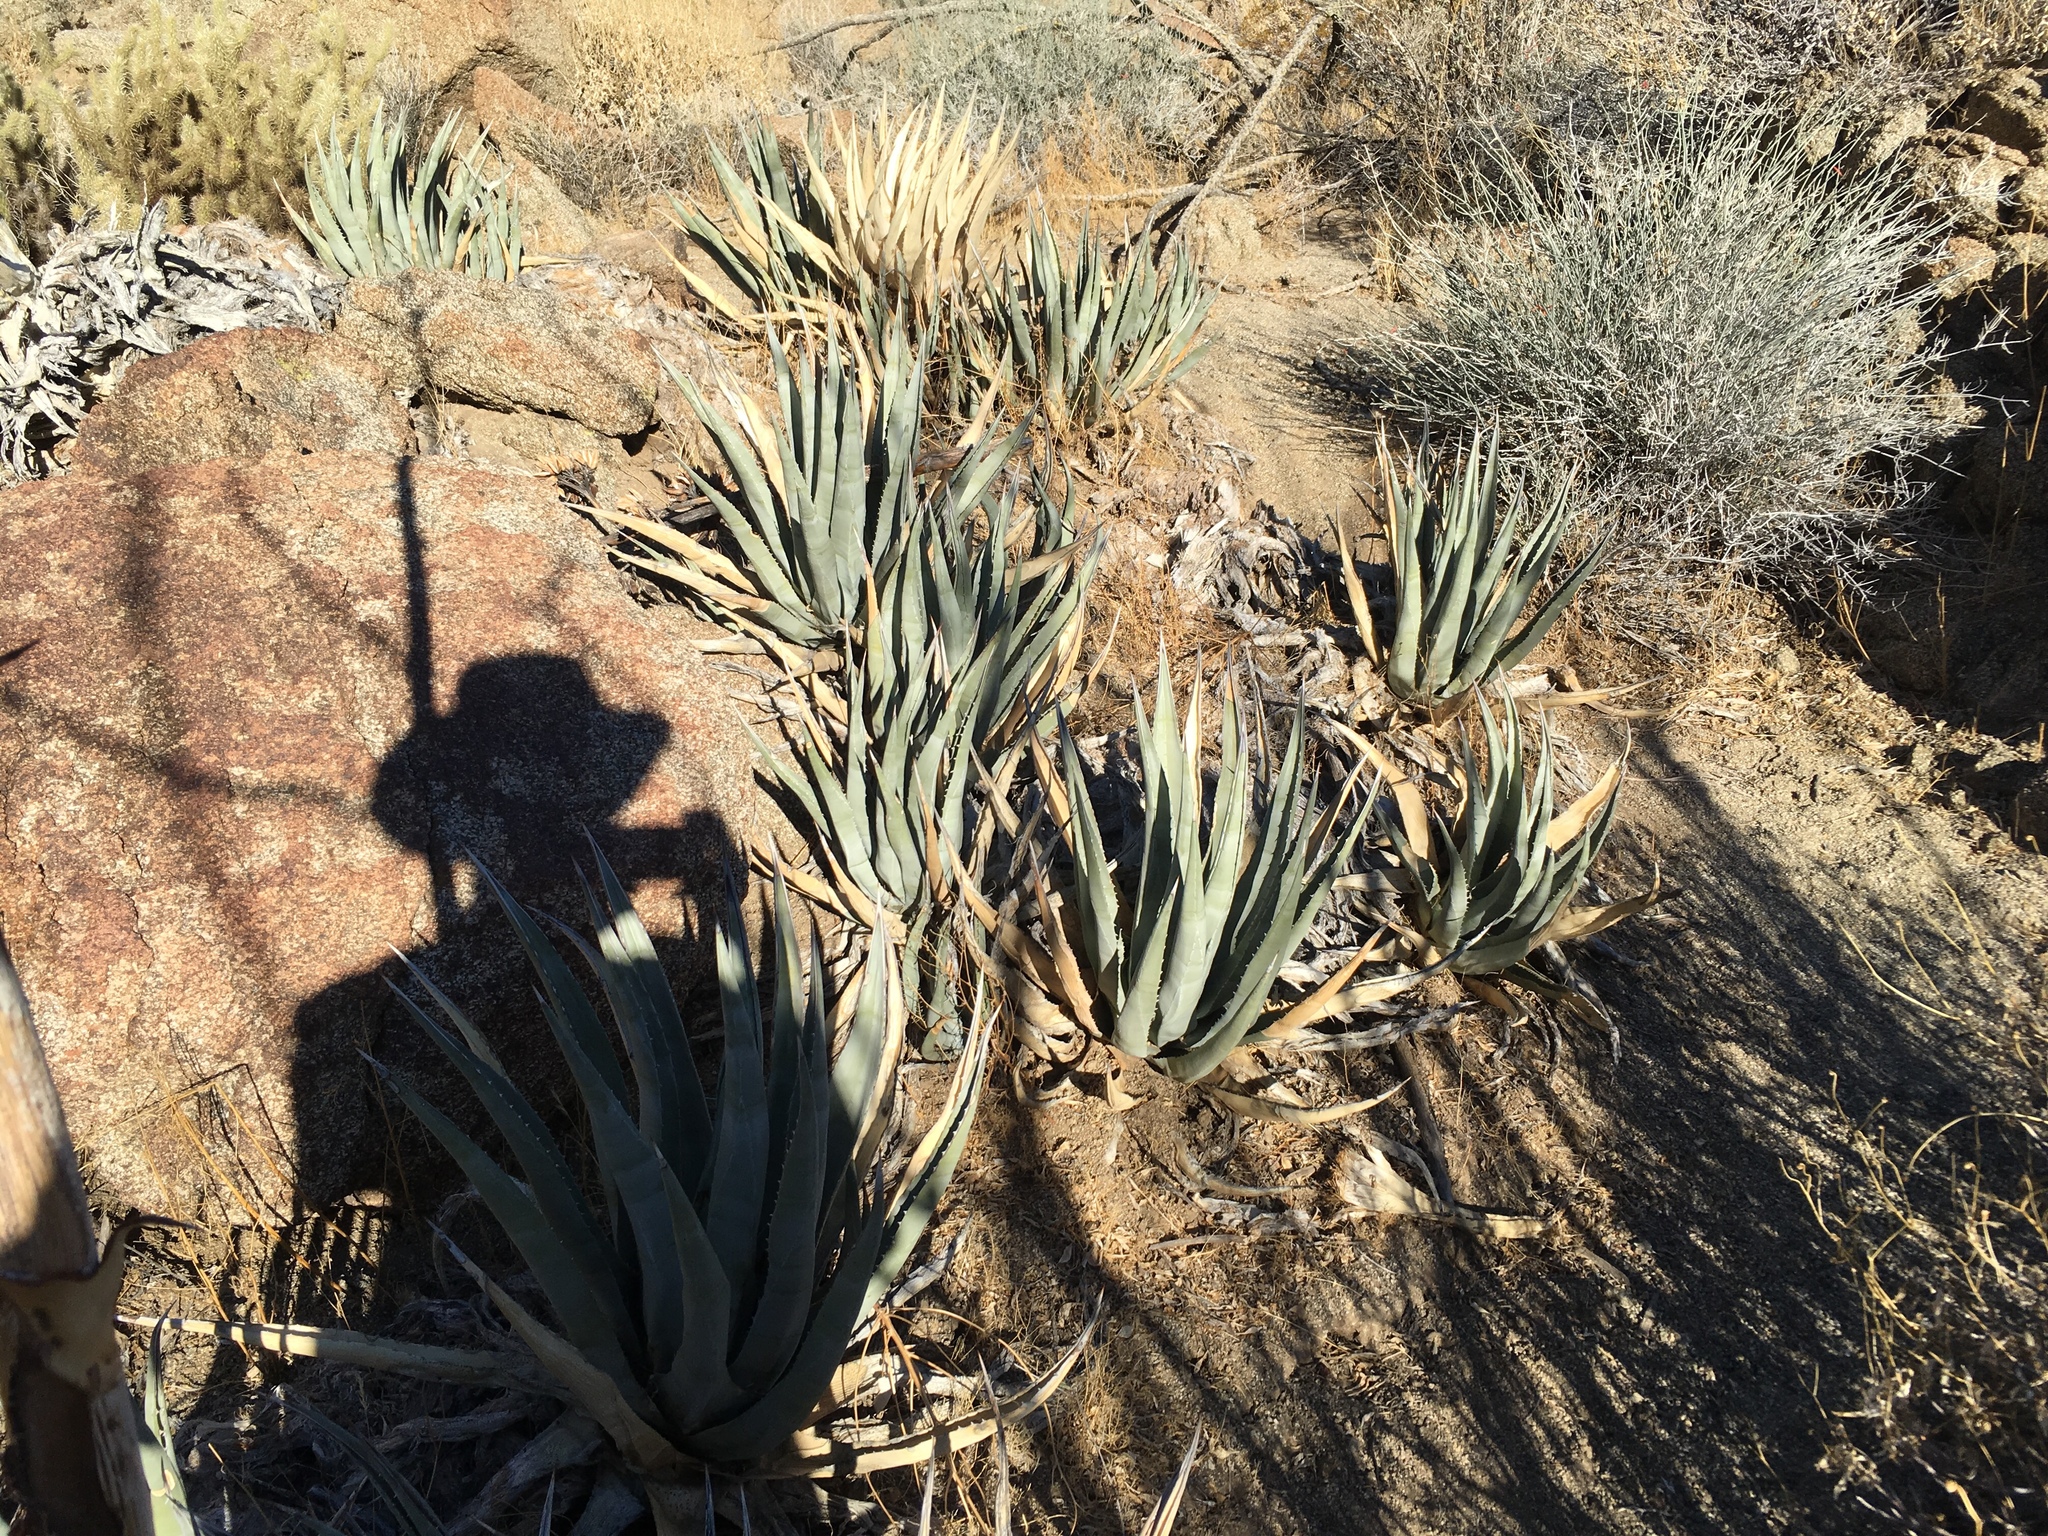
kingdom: Plantae
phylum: Tracheophyta
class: Liliopsida
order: Asparagales
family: Asparagaceae
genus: Agave
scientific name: Agave deserti
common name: Desert agave
